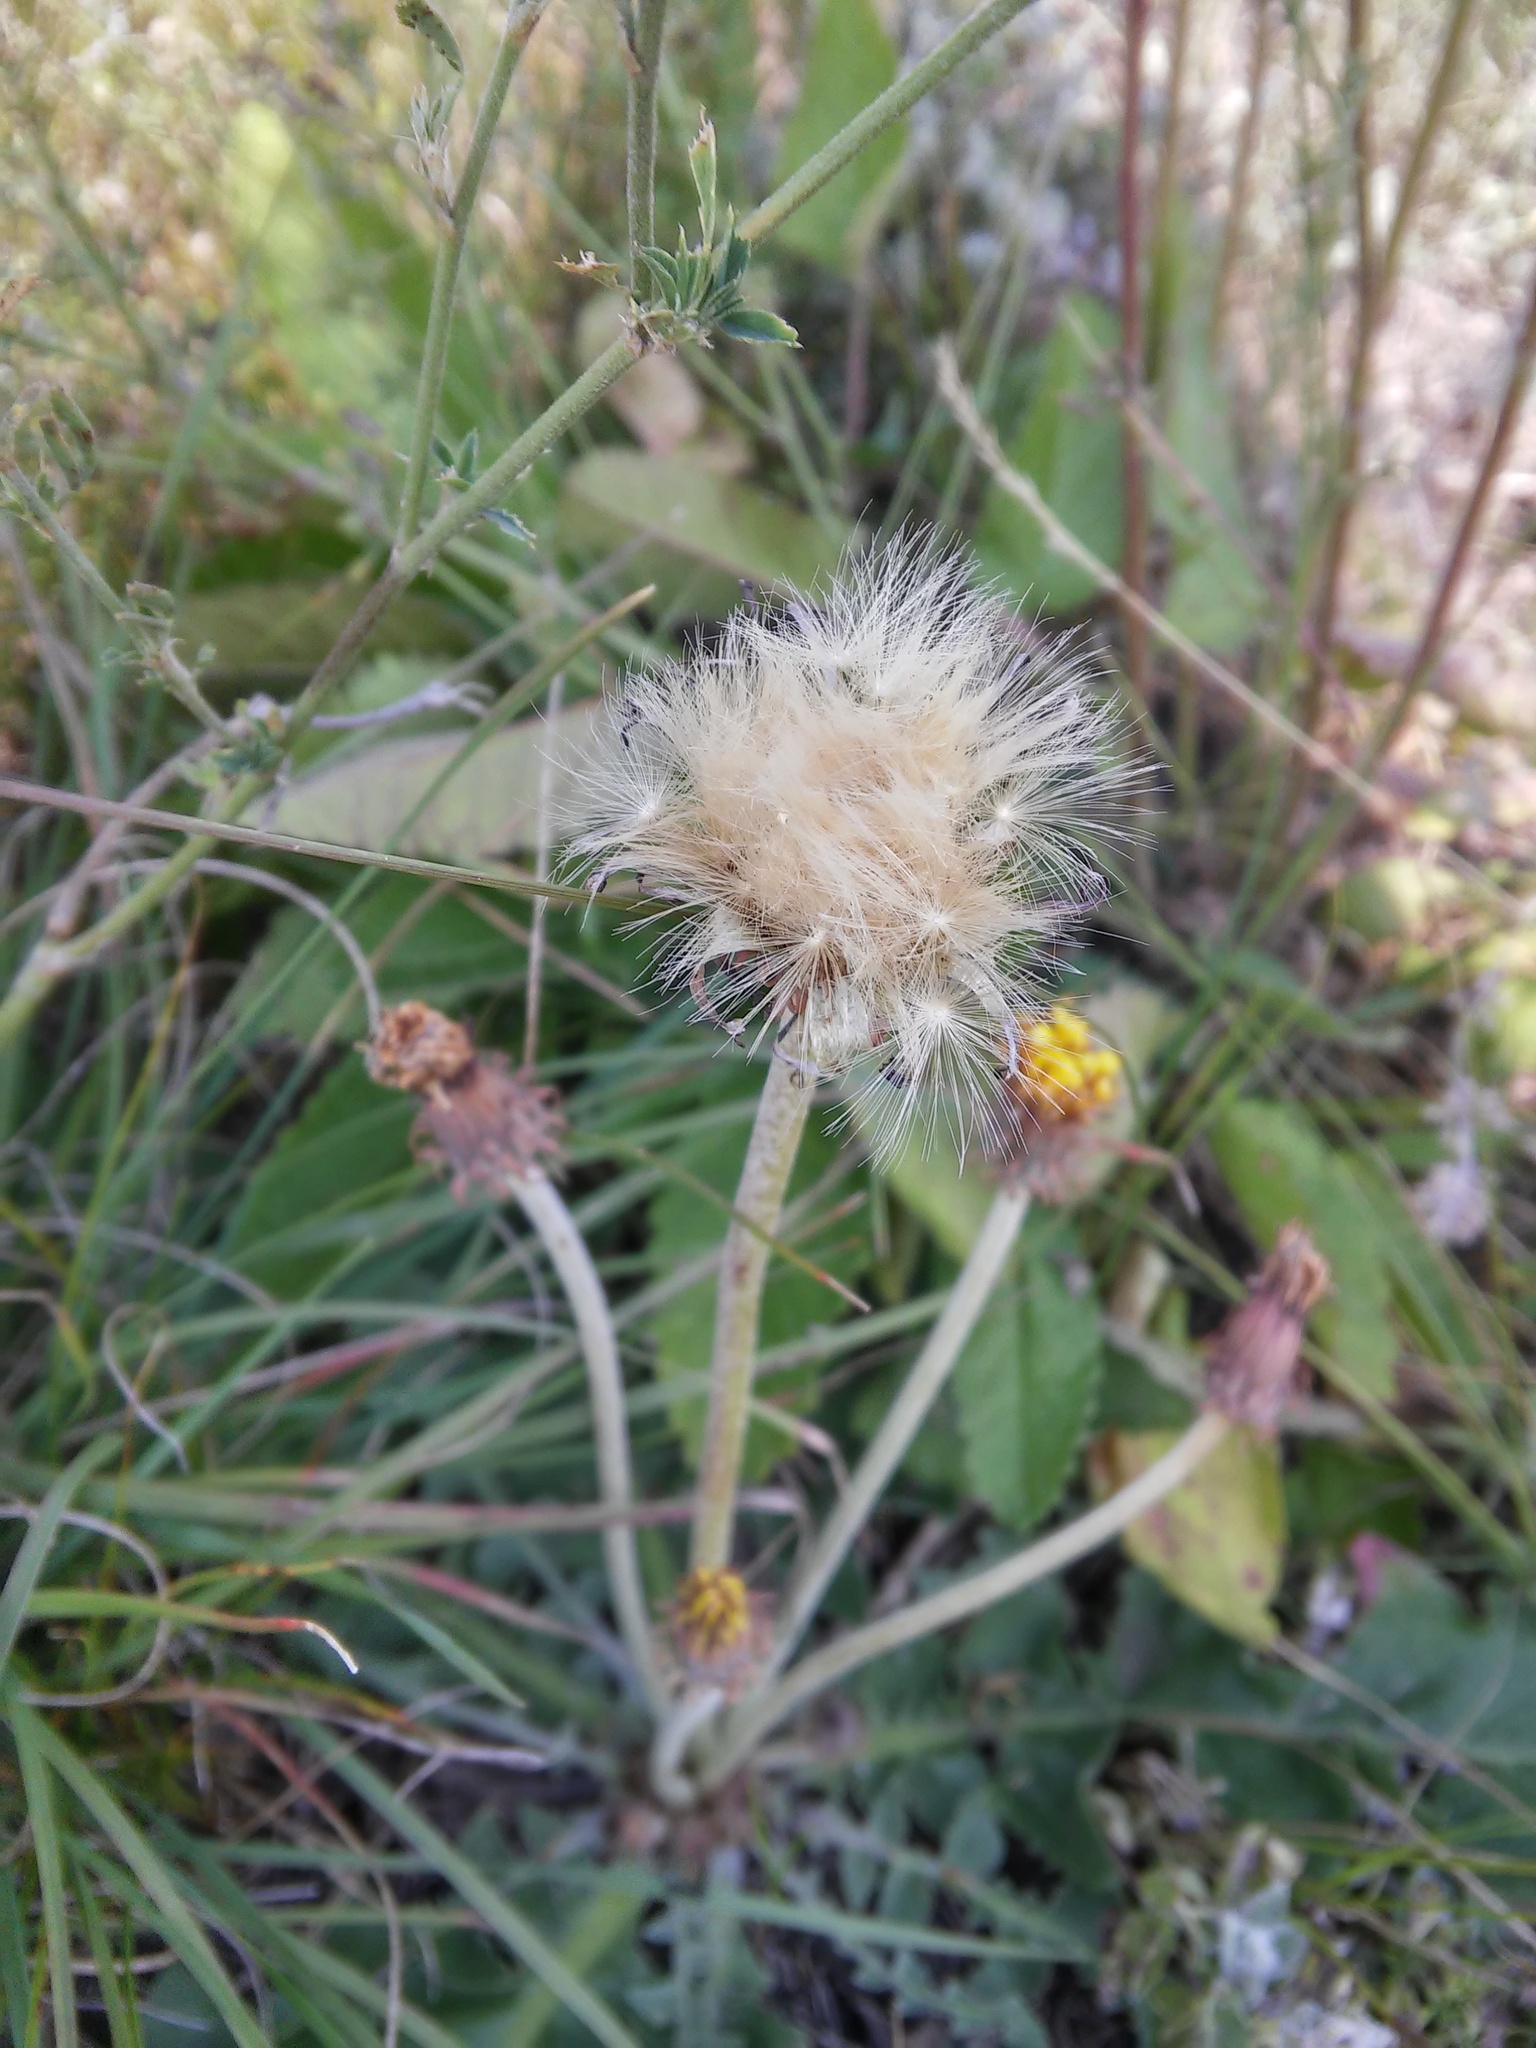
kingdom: Plantae
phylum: Tracheophyta
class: Magnoliopsida
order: Asterales
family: Asteraceae
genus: Taraxacum
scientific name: Taraxacum serotinum
